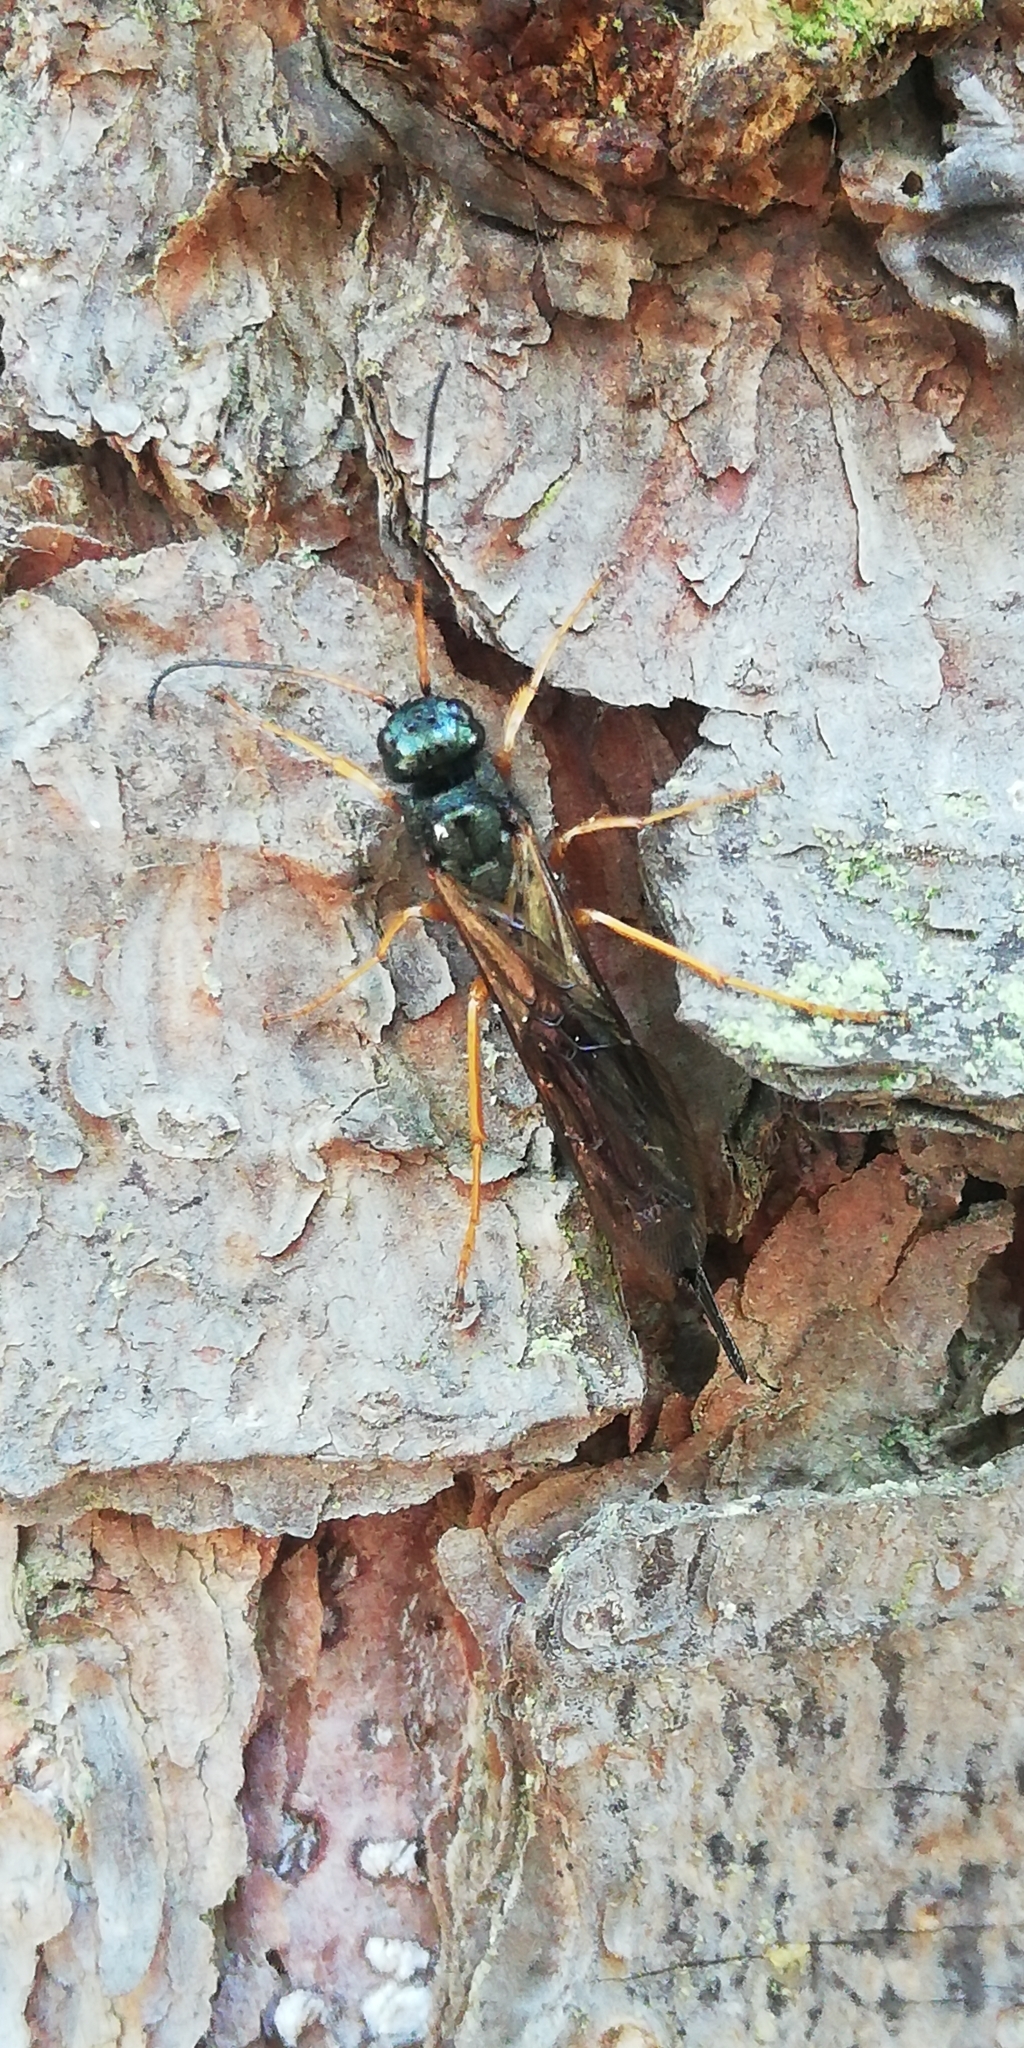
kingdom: Animalia
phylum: Arthropoda
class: Insecta
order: Hymenoptera
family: Siricidae
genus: Sirex
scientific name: Sirex juvencus
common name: Blue horntail
